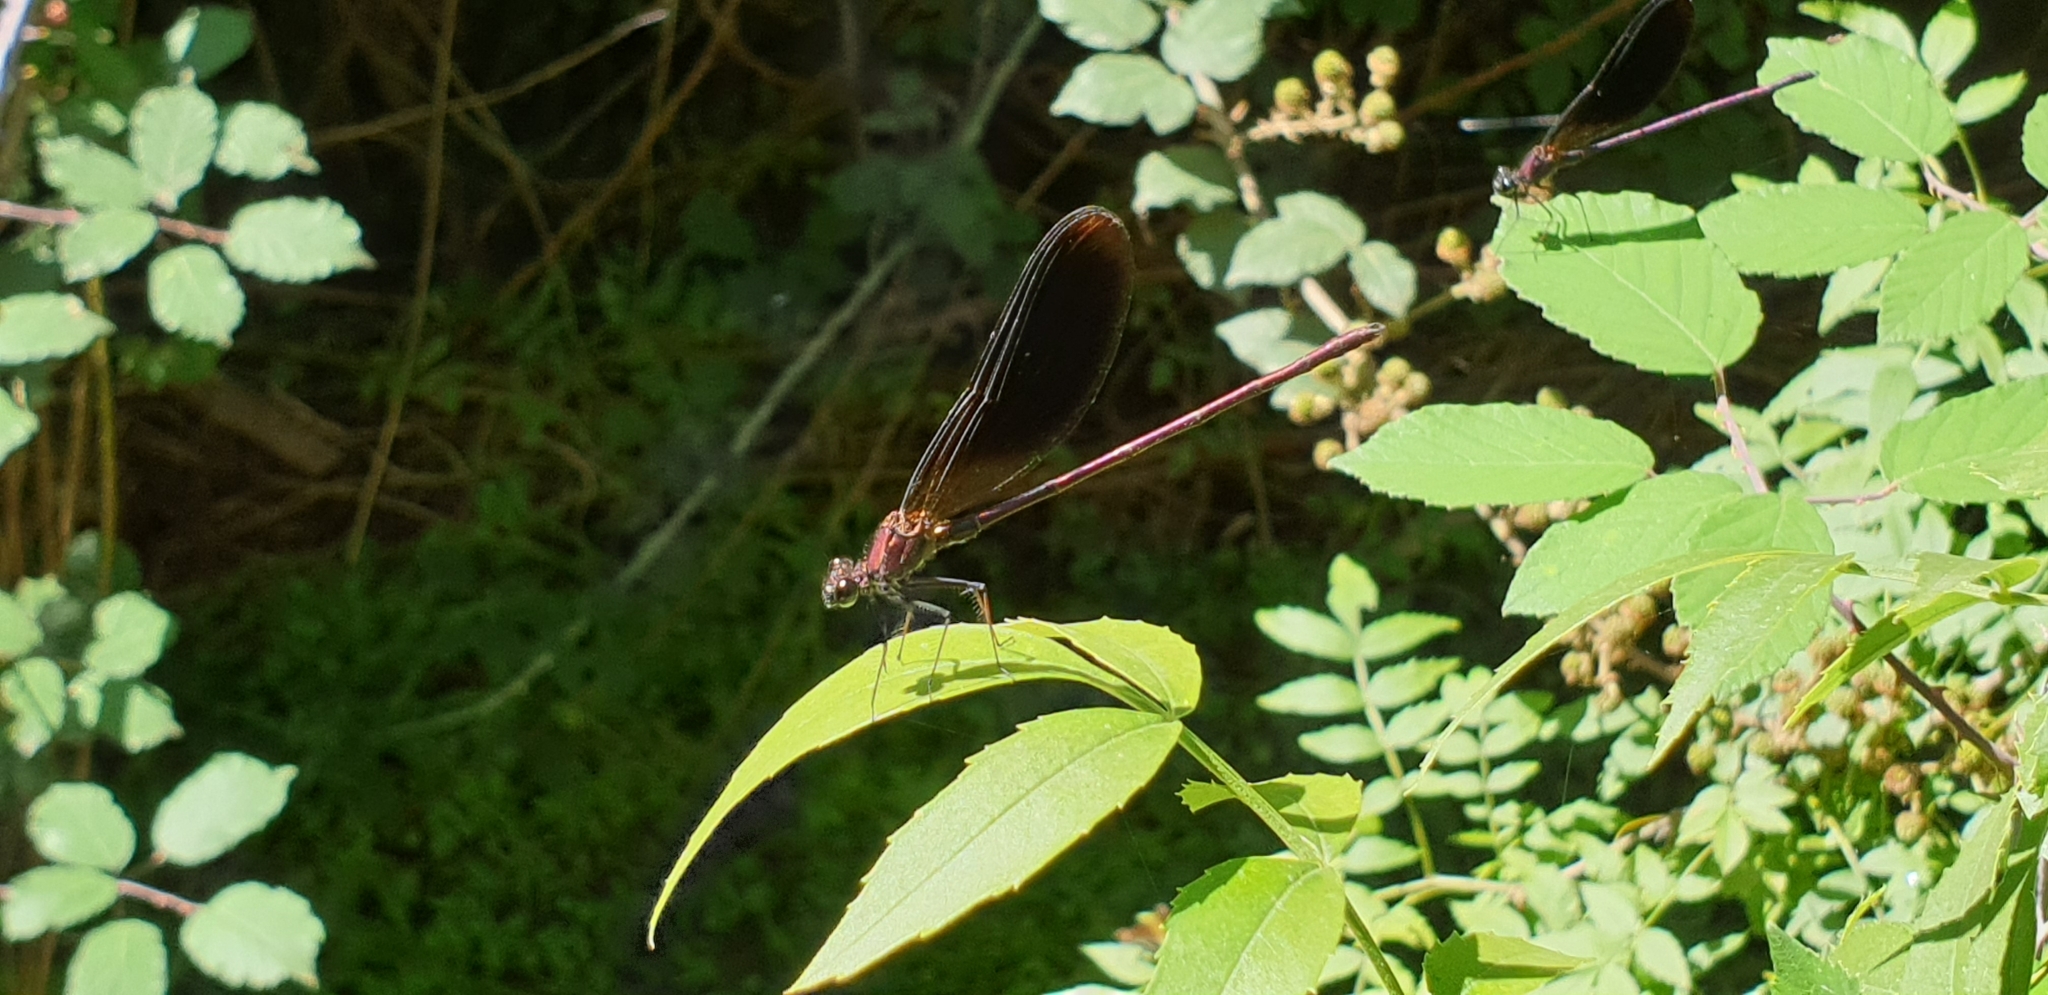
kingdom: Animalia
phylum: Arthropoda
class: Insecta
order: Odonata
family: Calopterygidae
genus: Calopteryx
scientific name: Calopteryx haemorrhoidalis
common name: Copper demoiselle
